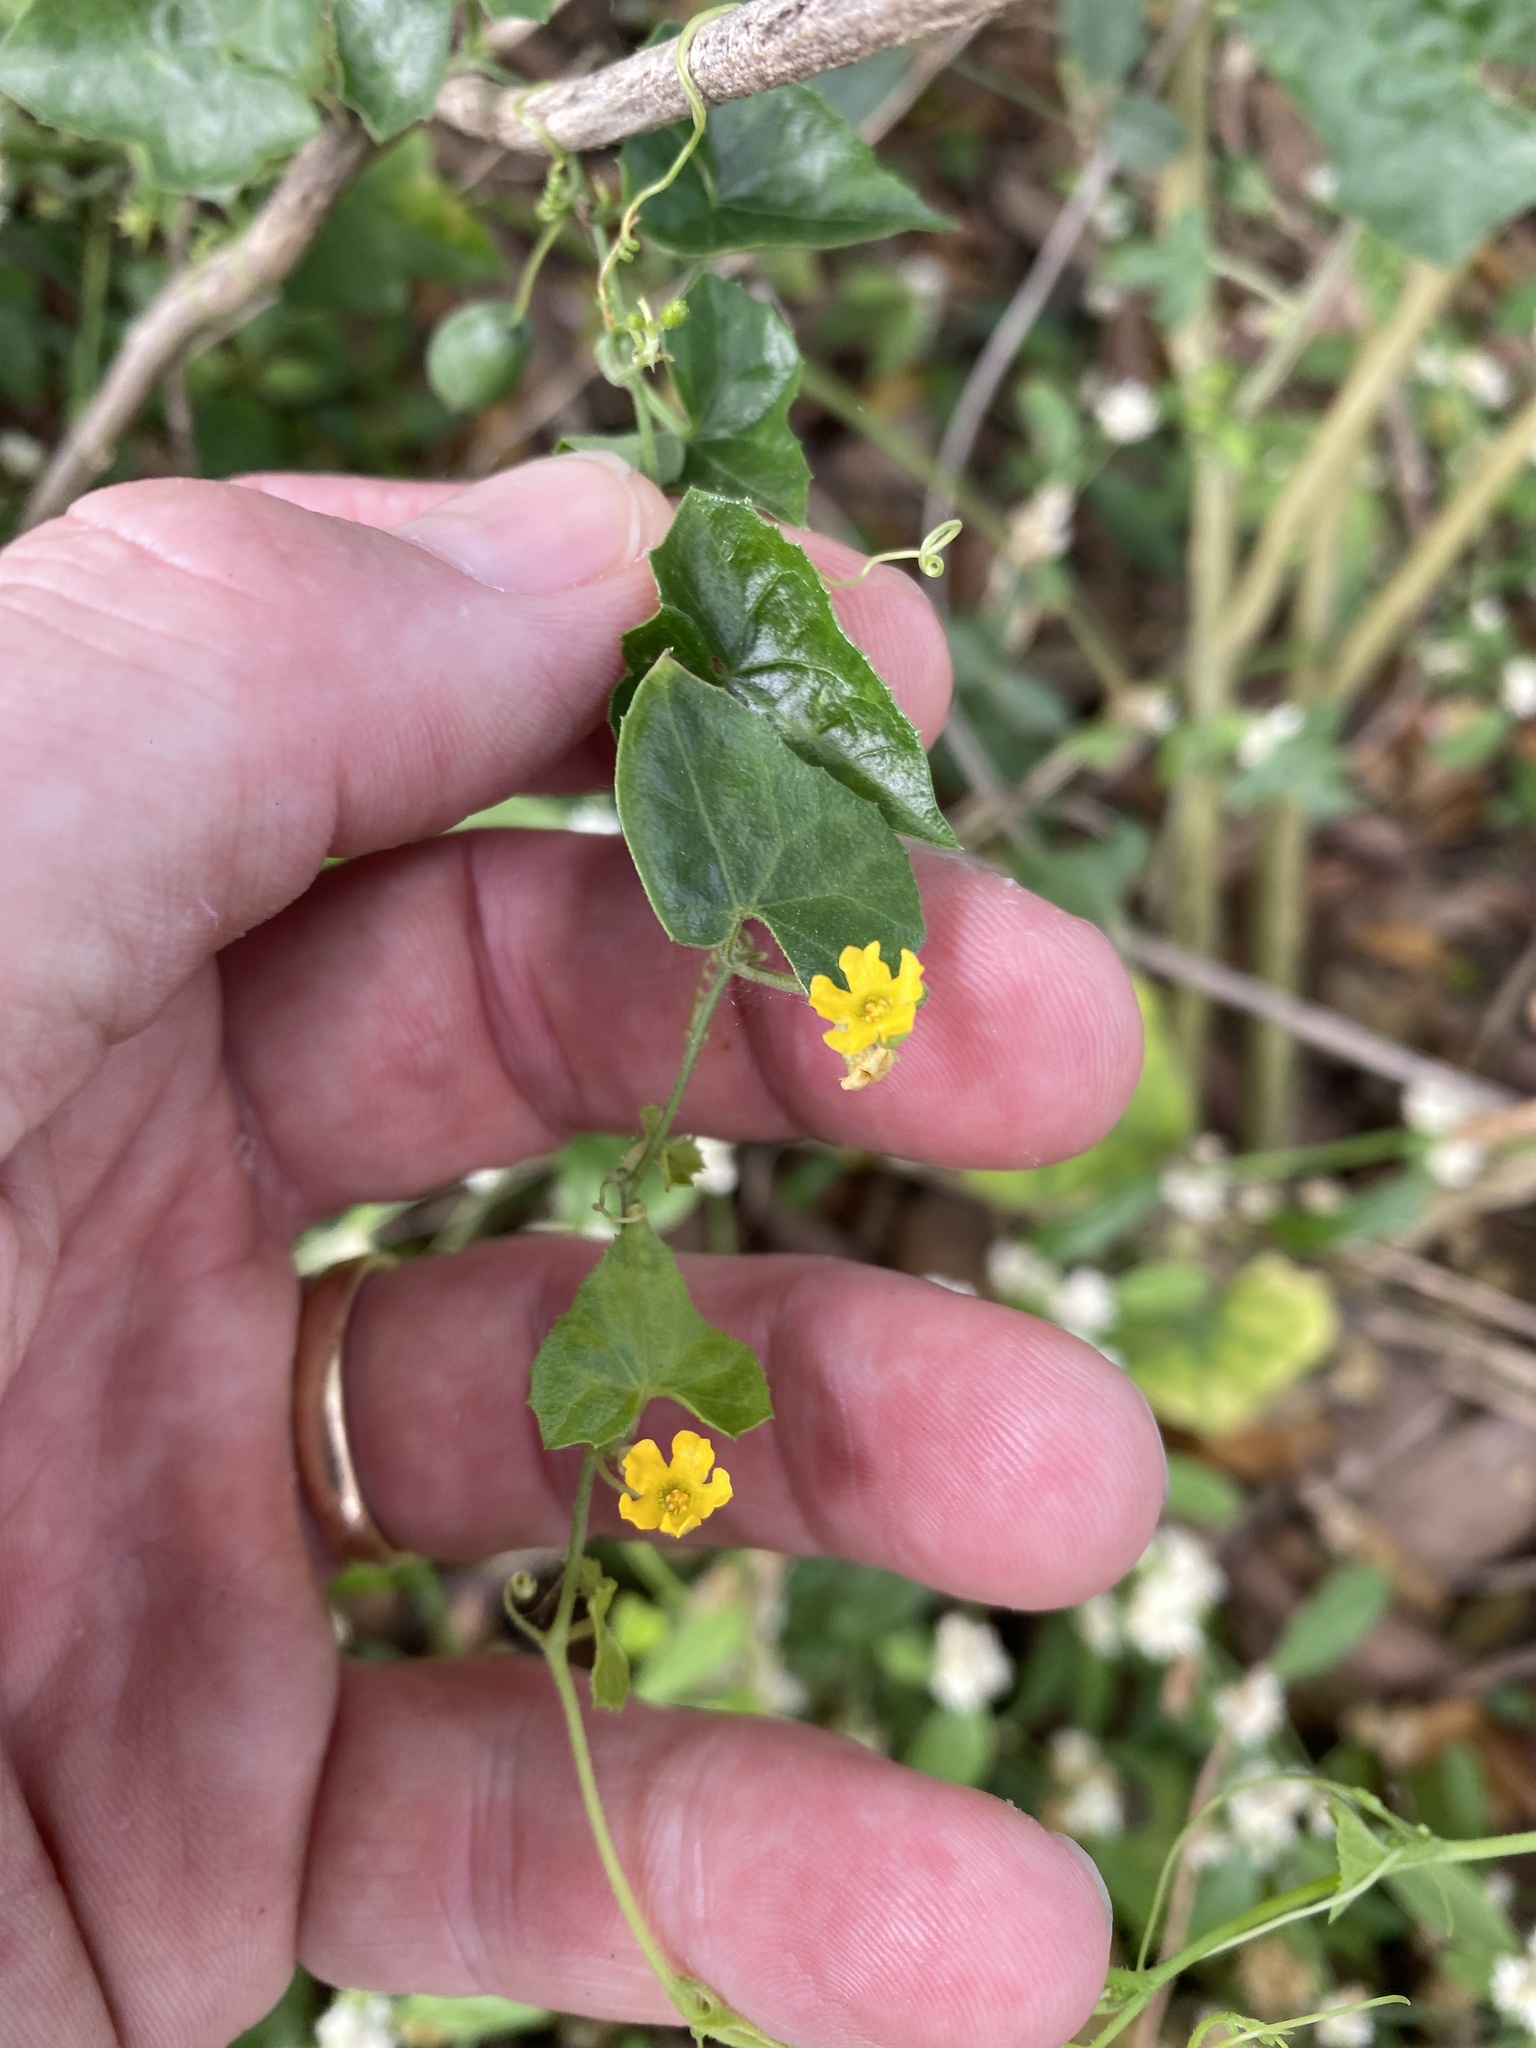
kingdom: Plantae
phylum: Tracheophyta
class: Magnoliopsida
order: Cucurbitales
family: Cucurbitaceae
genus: Melothria
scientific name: Melothria pendula
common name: Creeping-cucumber
